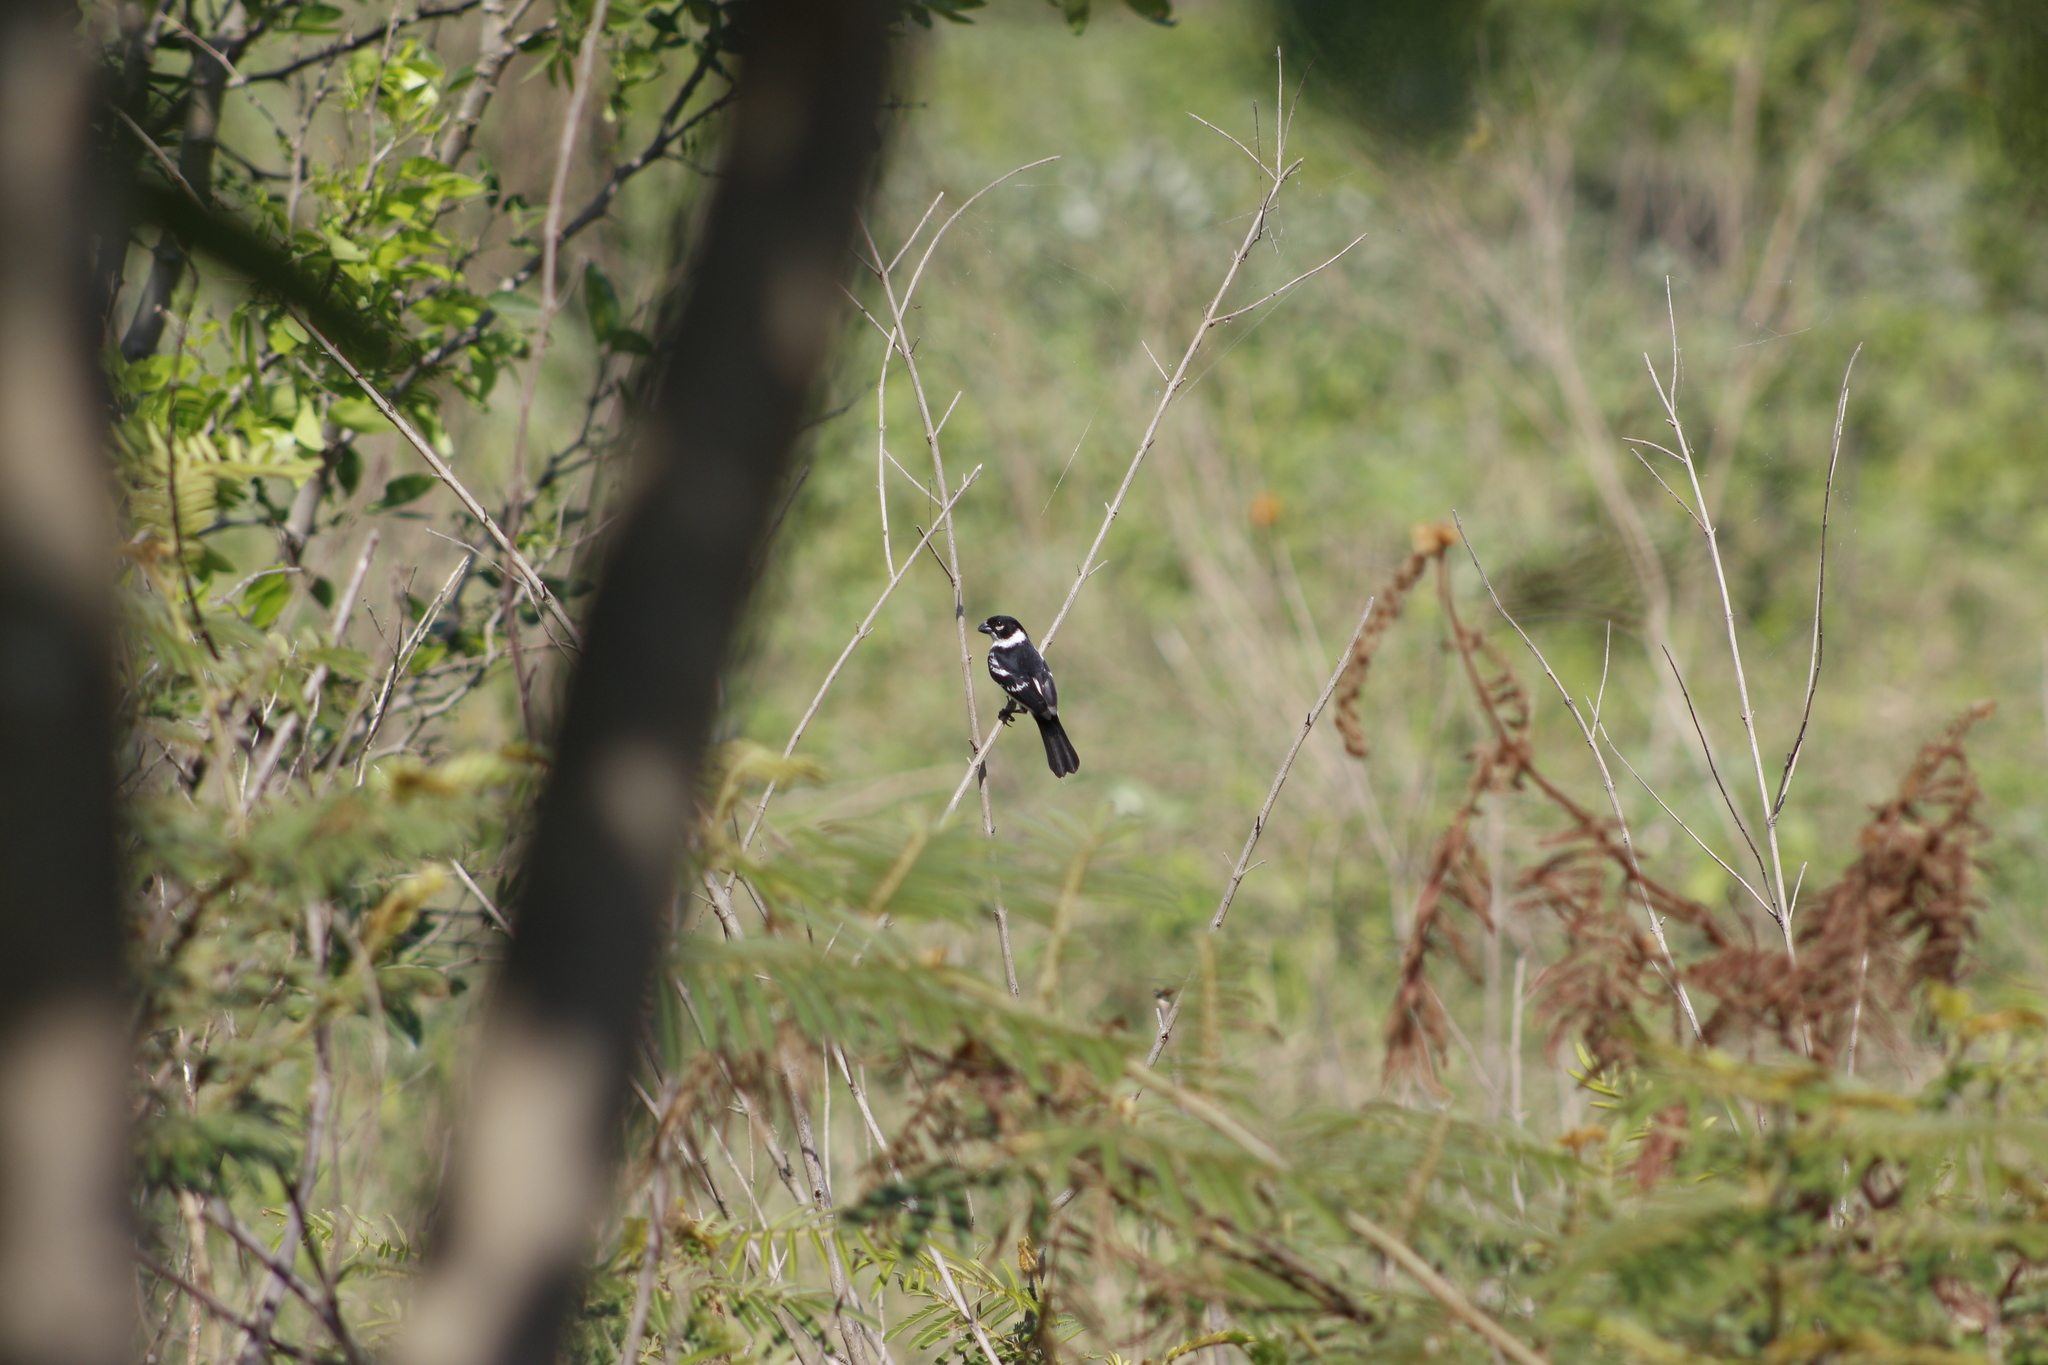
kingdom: Animalia
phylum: Chordata
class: Aves
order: Passeriformes
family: Thraupidae
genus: Sporophila
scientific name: Sporophila morelleti
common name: Morelet's seedeater
